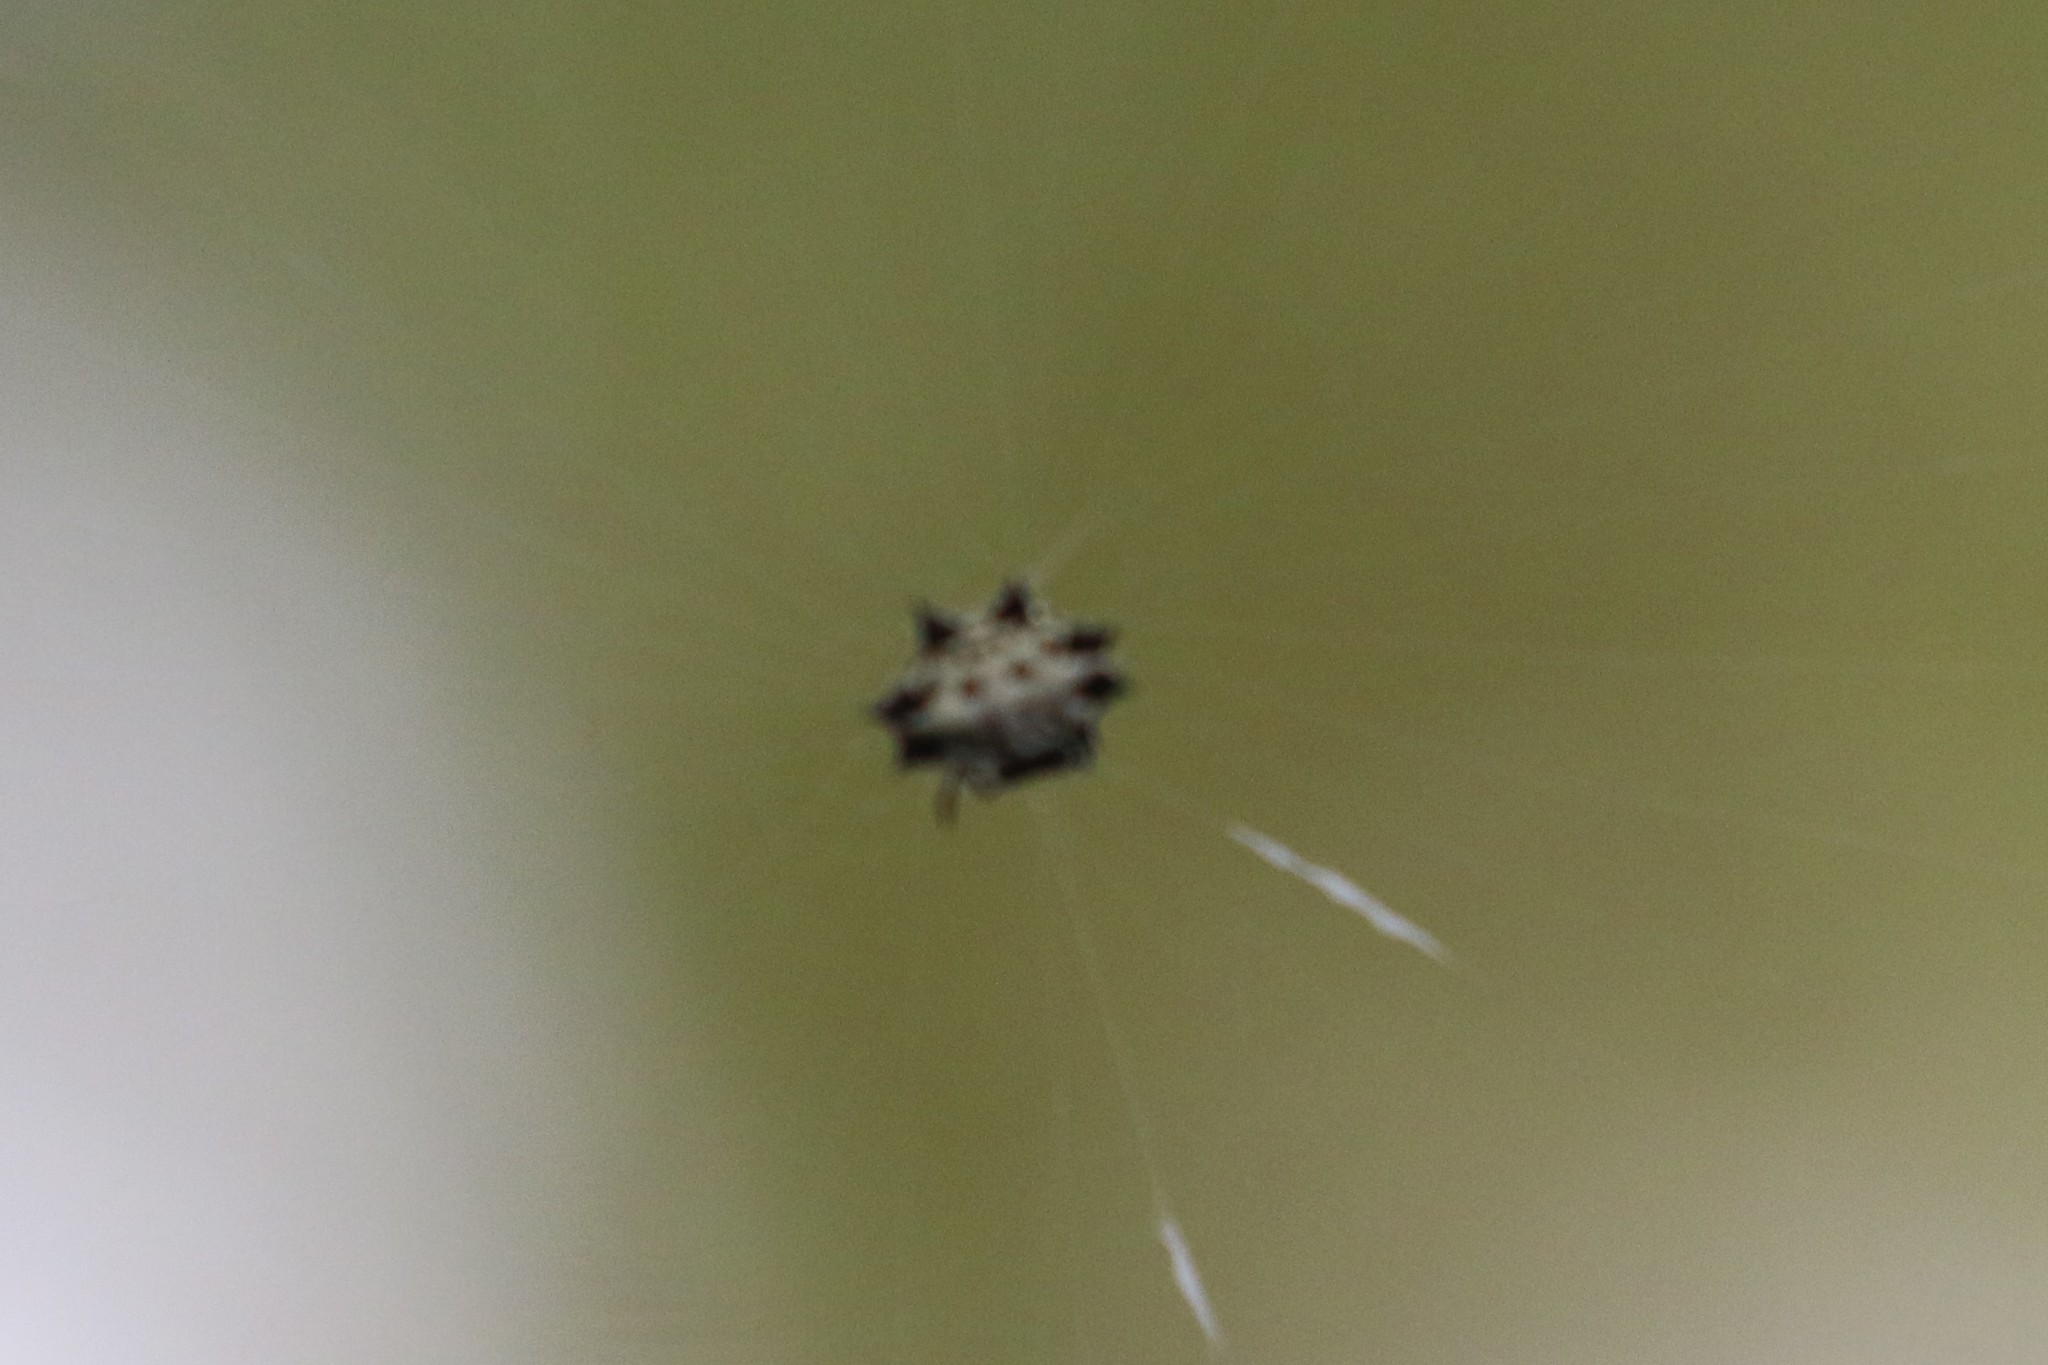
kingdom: Animalia
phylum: Arthropoda
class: Arachnida
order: Araneae
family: Araneidae
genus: Gasteracantha
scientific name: Gasteracantha cancriformis
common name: Orb weavers
